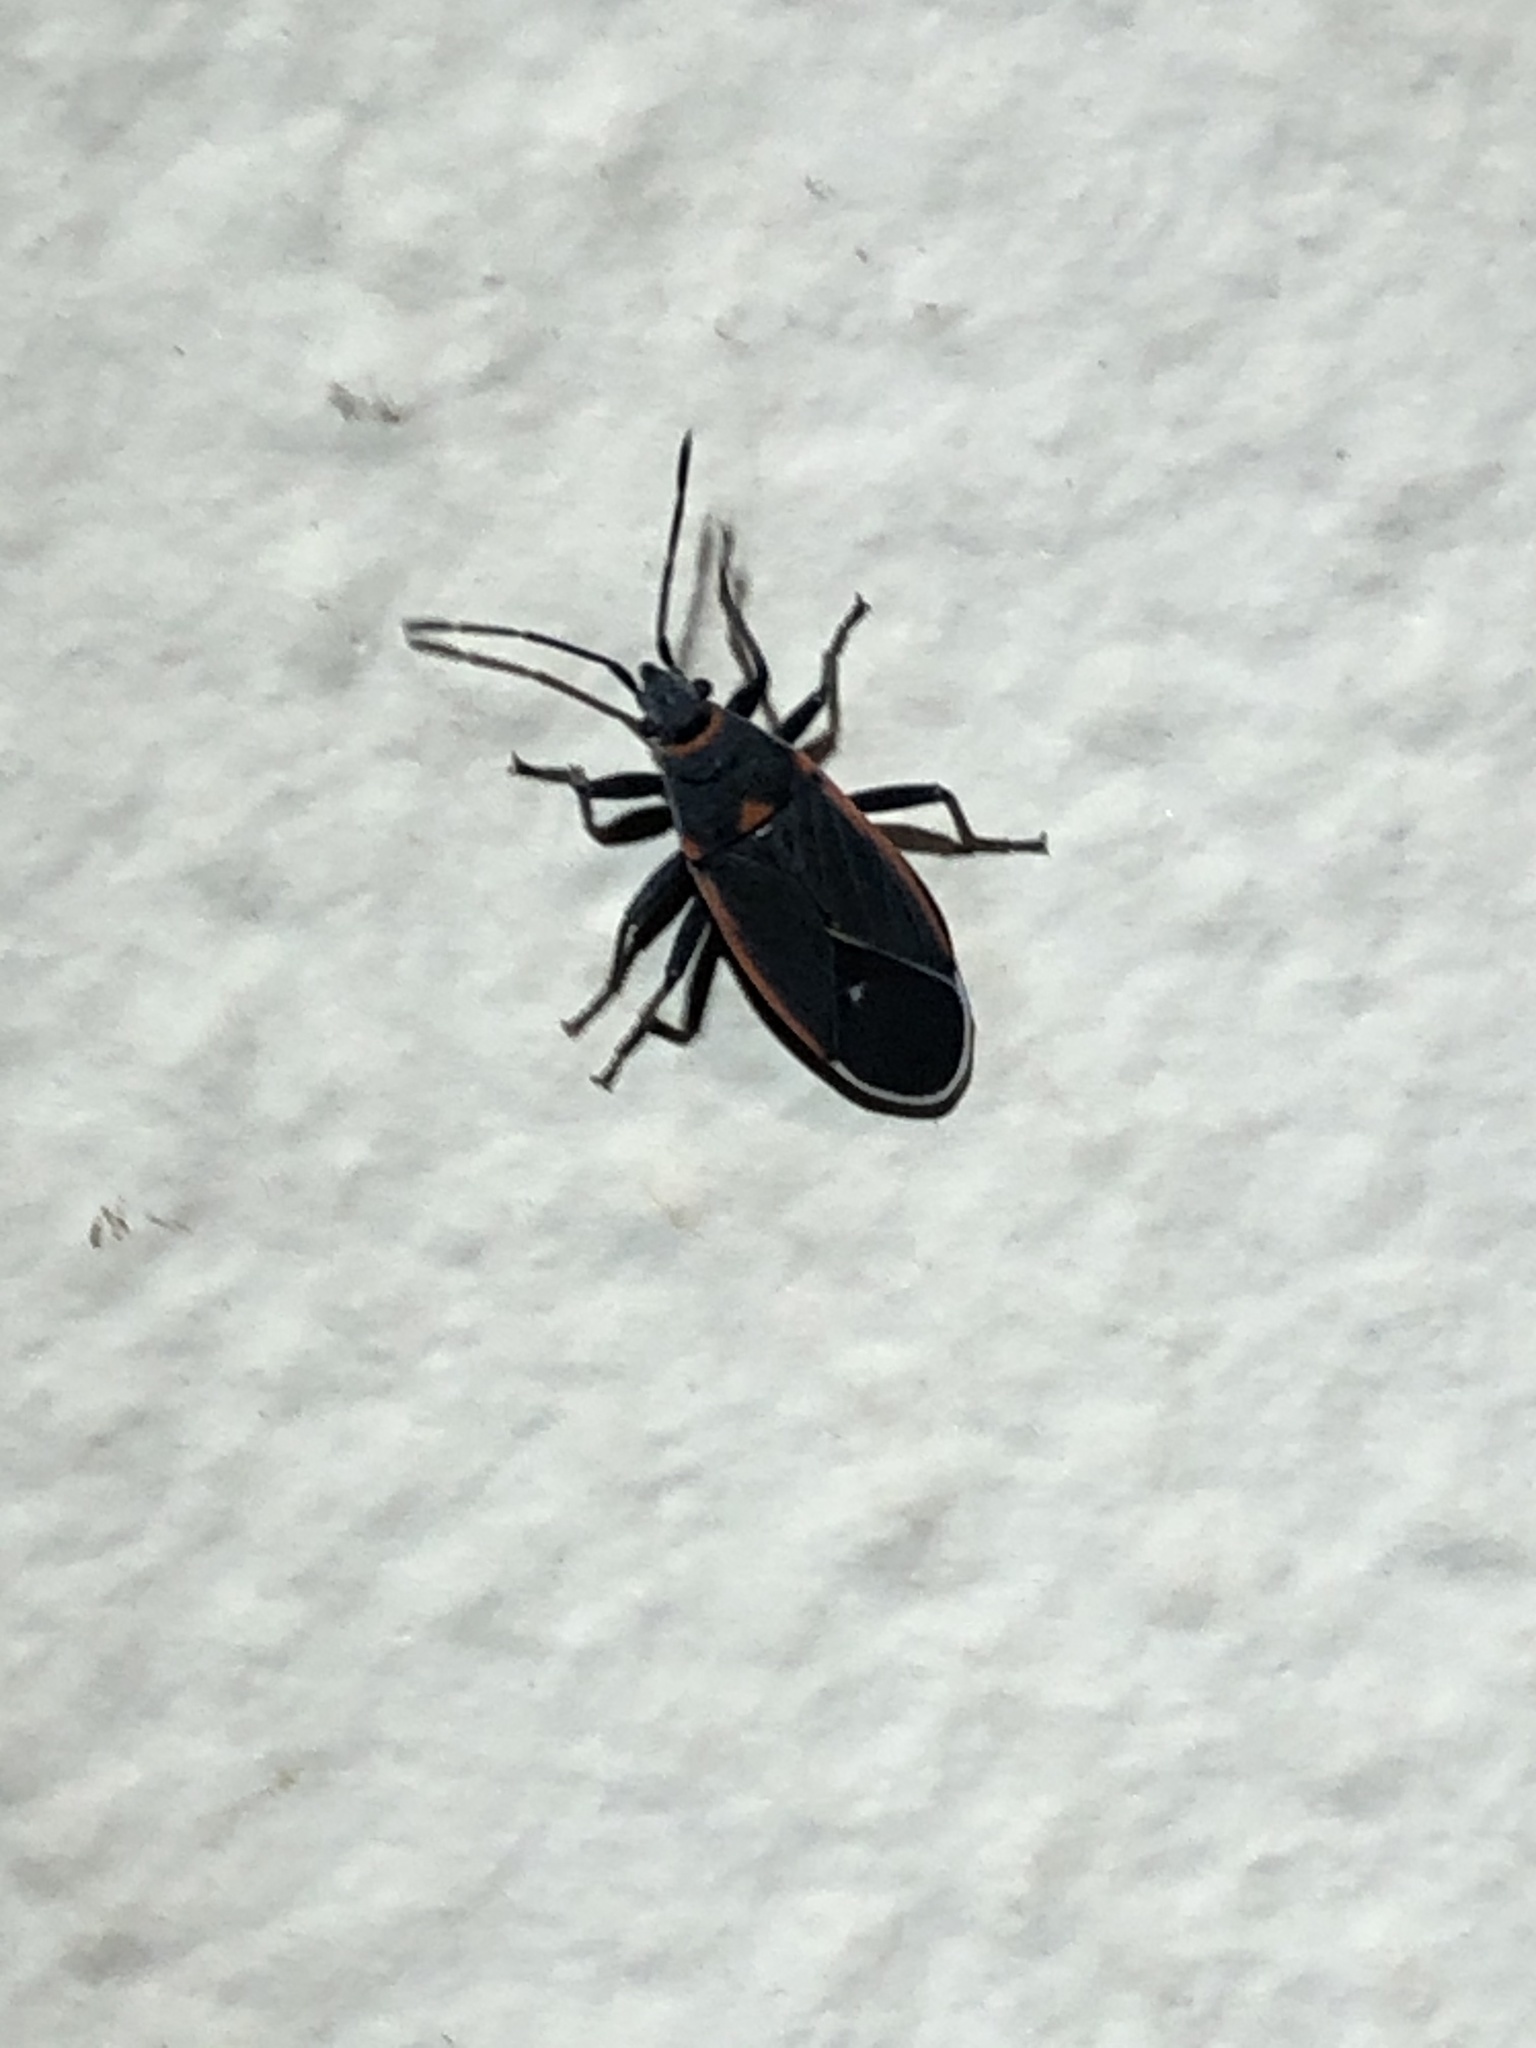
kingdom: Animalia
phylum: Arthropoda
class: Insecta
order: Hemiptera
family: Lygaeidae
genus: Melacoryphus
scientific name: Melacoryphus lateralis
